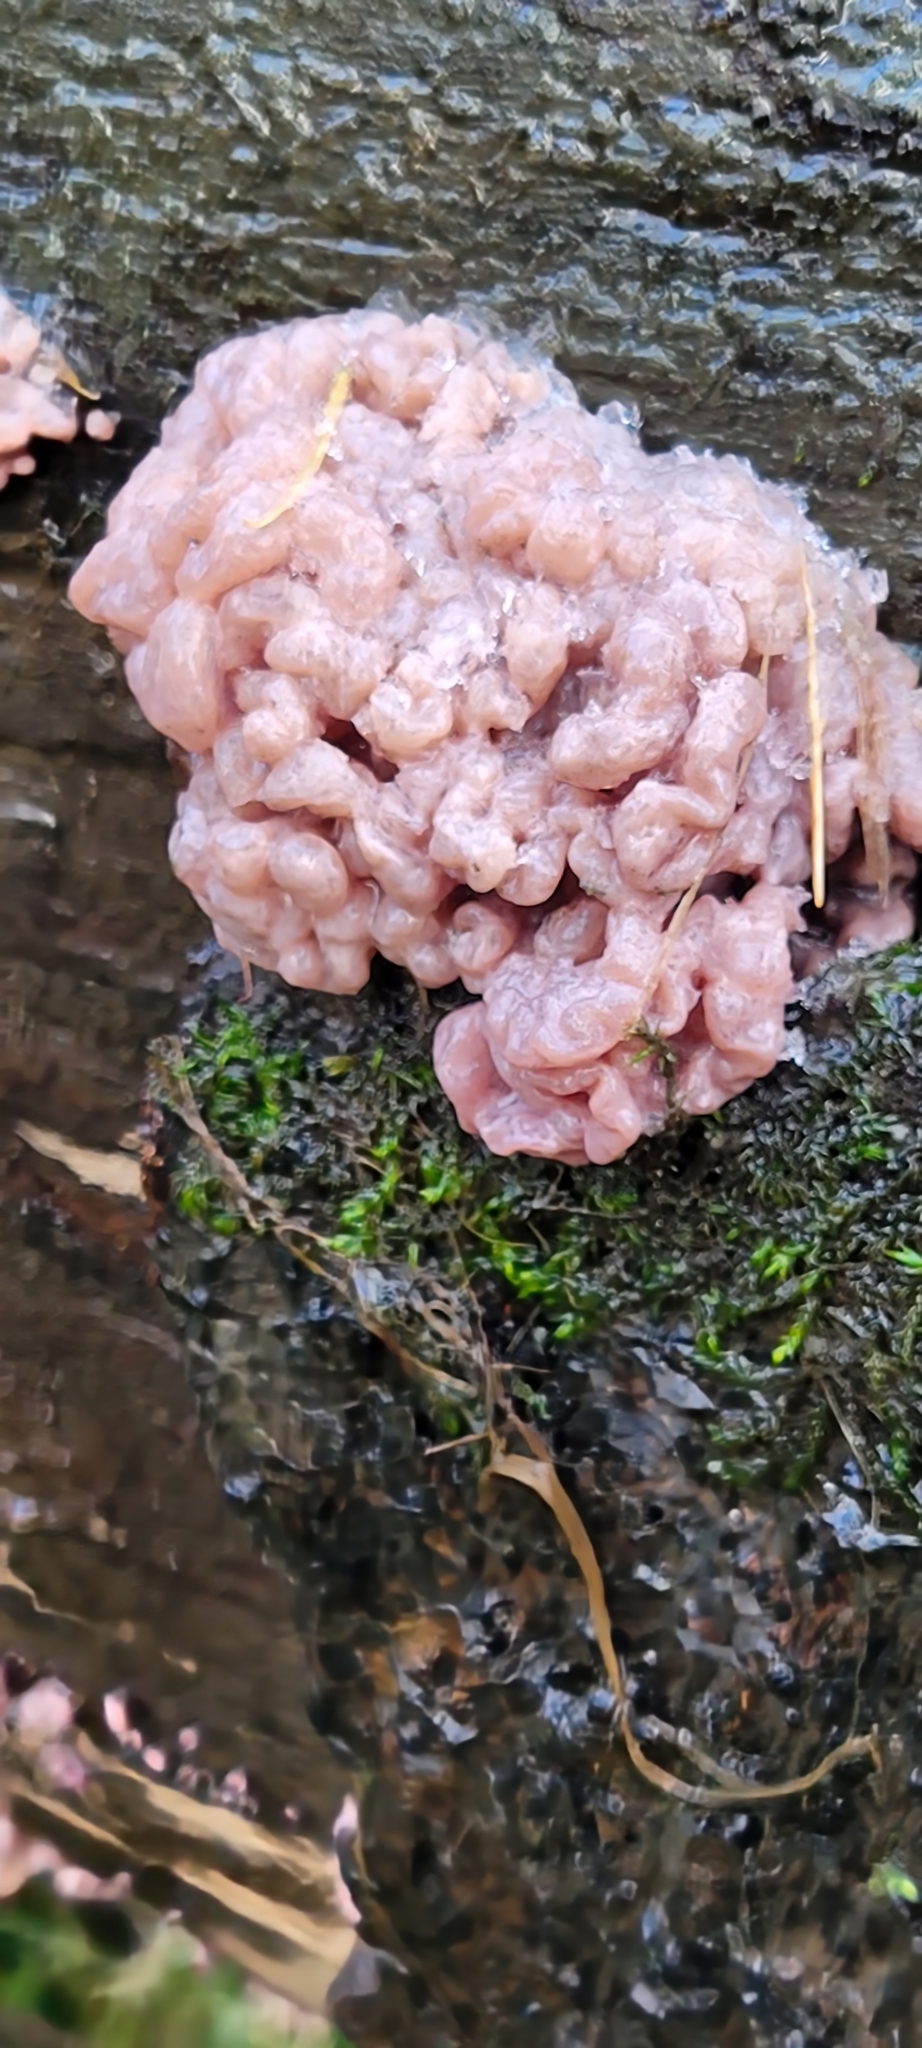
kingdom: Fungi
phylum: Ascomycota
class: Leotiomycetes
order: Helotiales
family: Gelatinodiscaceae
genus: Ascocoryne
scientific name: Ascocoryne sarcoides
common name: Purple jellydisc
